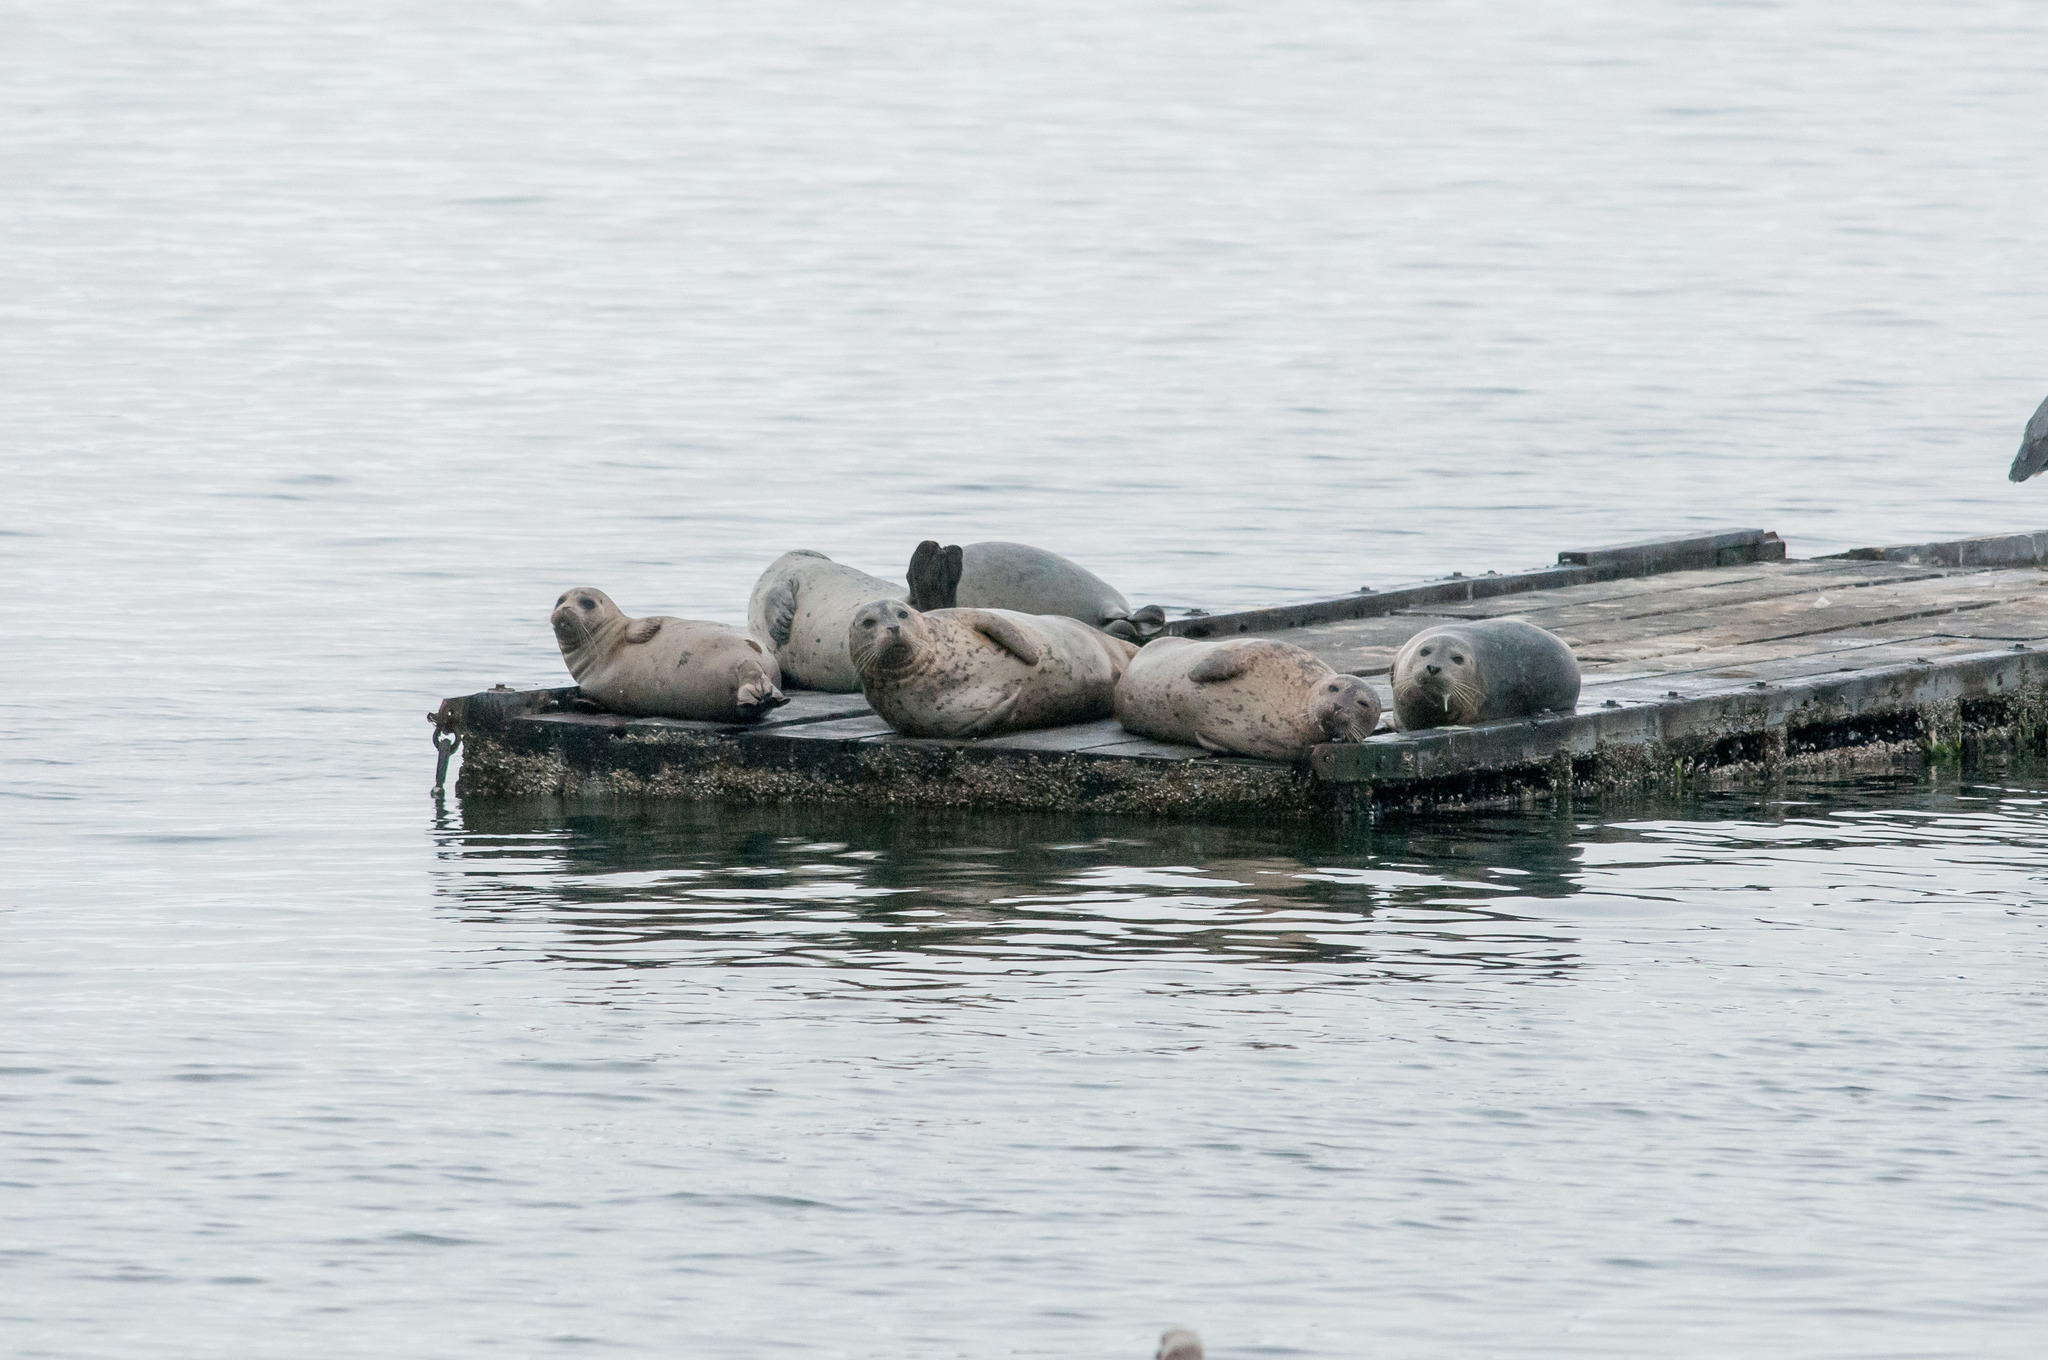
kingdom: Animalia
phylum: Chordata
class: Mammalia
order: Carnivora
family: Phocidae
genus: Phoca
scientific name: Phoca vitulina
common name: Harbor seal
